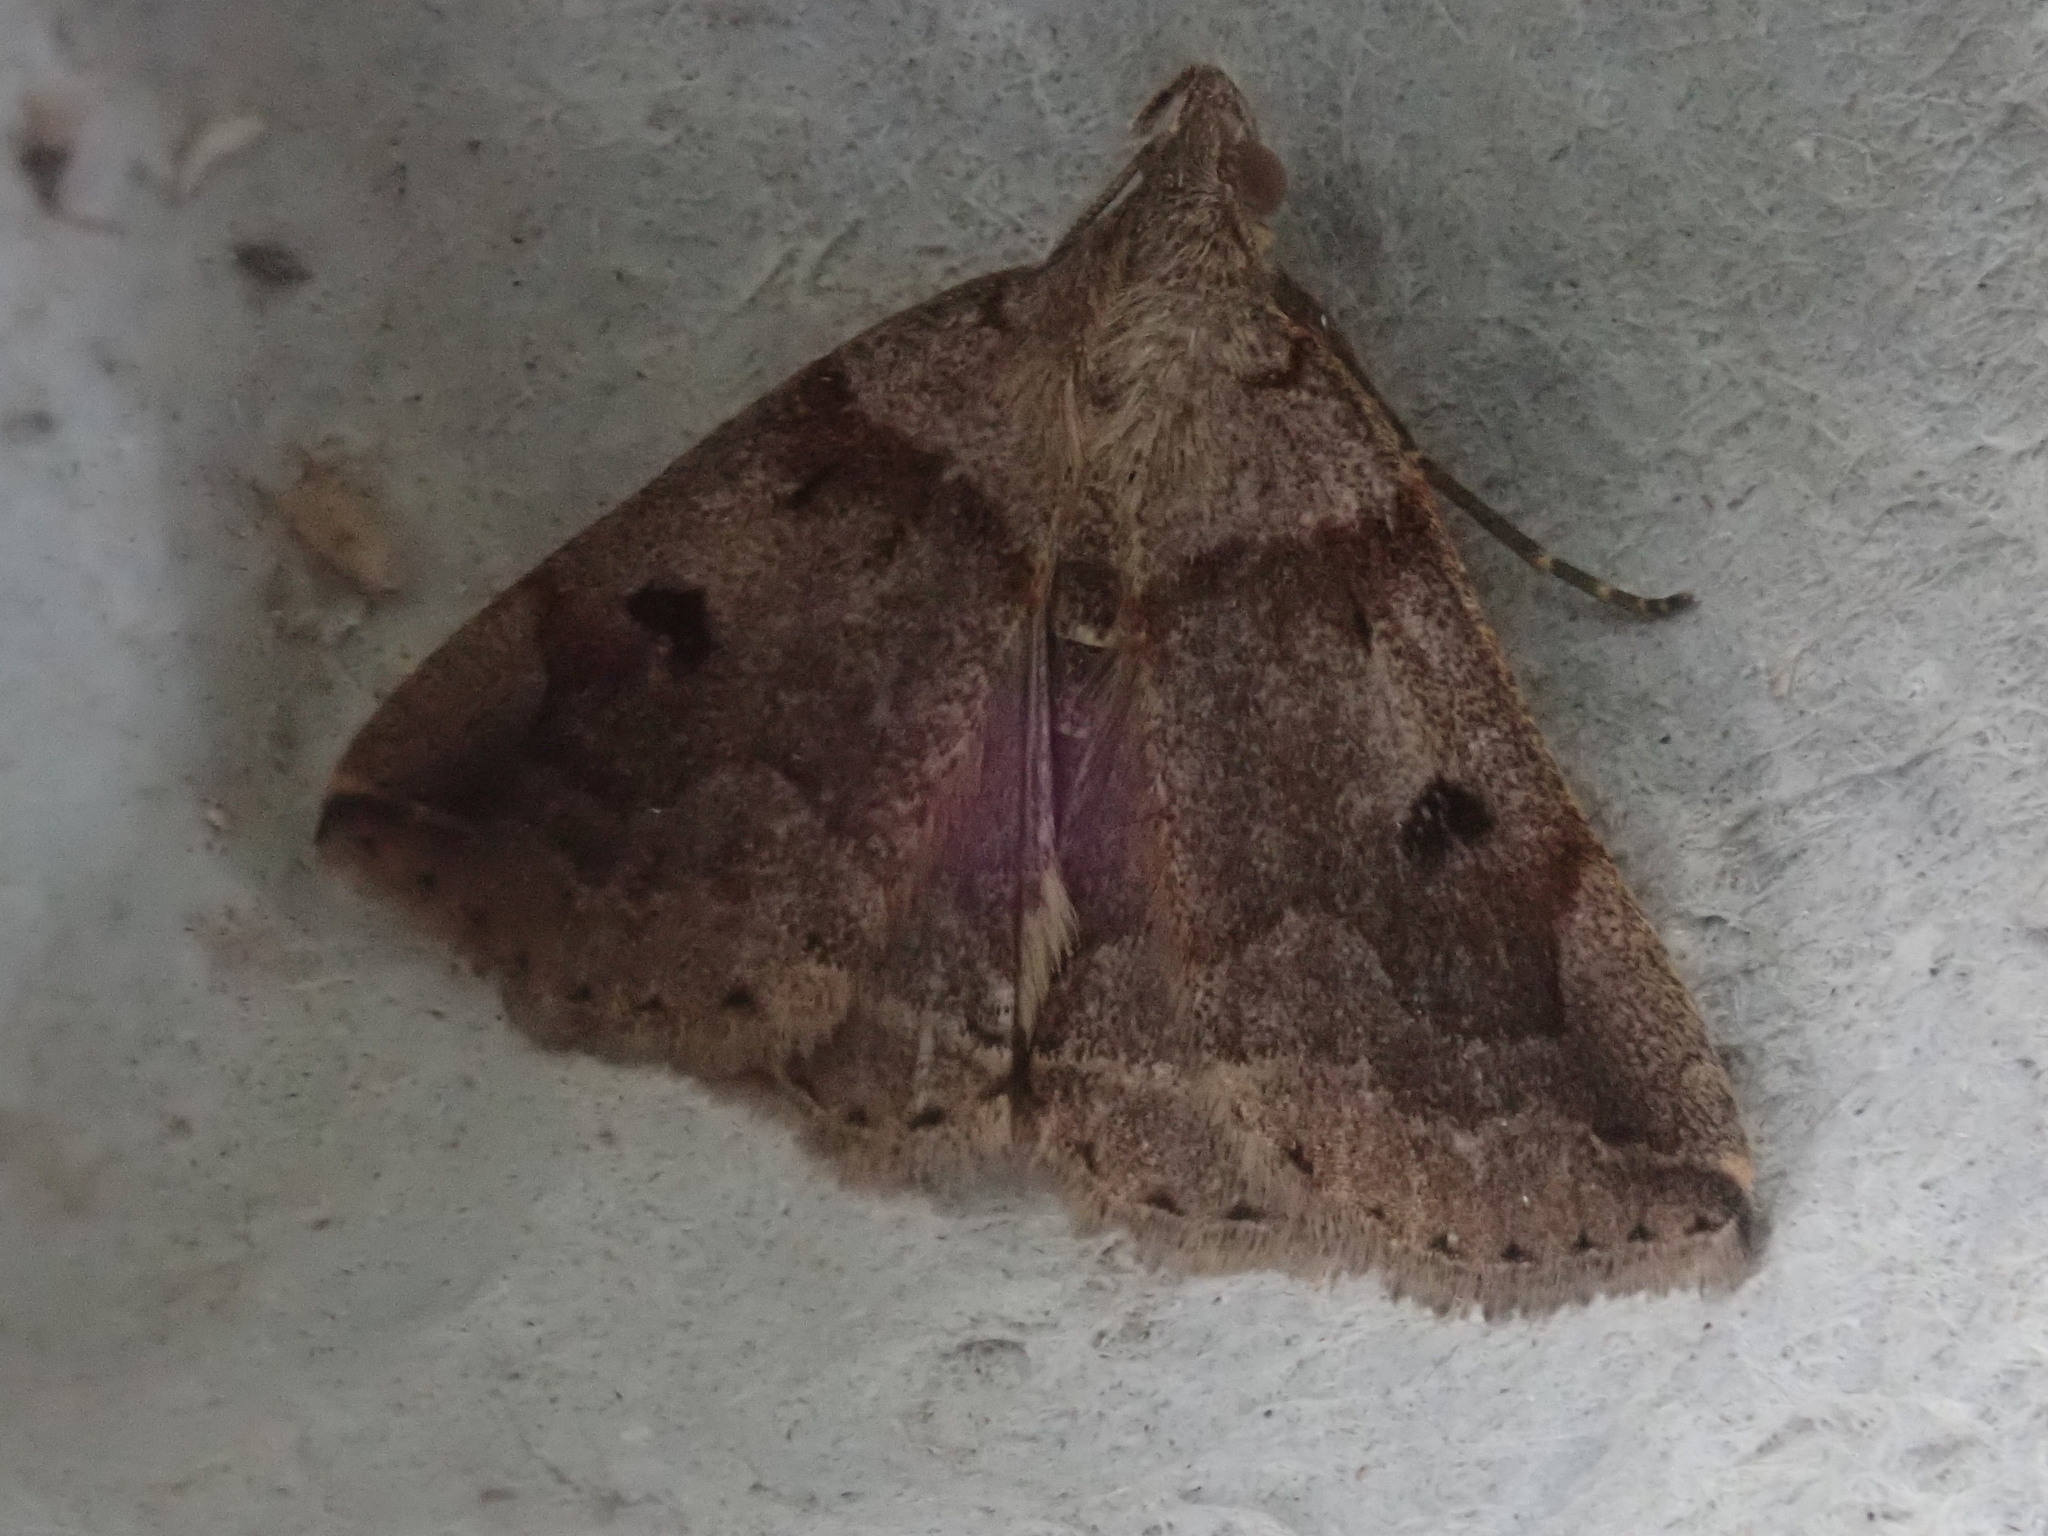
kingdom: Animalia
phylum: Arthropoda
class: Insecta
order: Lepidoptera
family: Erebidae
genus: Zanclognatha
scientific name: Zanclognatha laevigata
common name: Variable fan-foot
